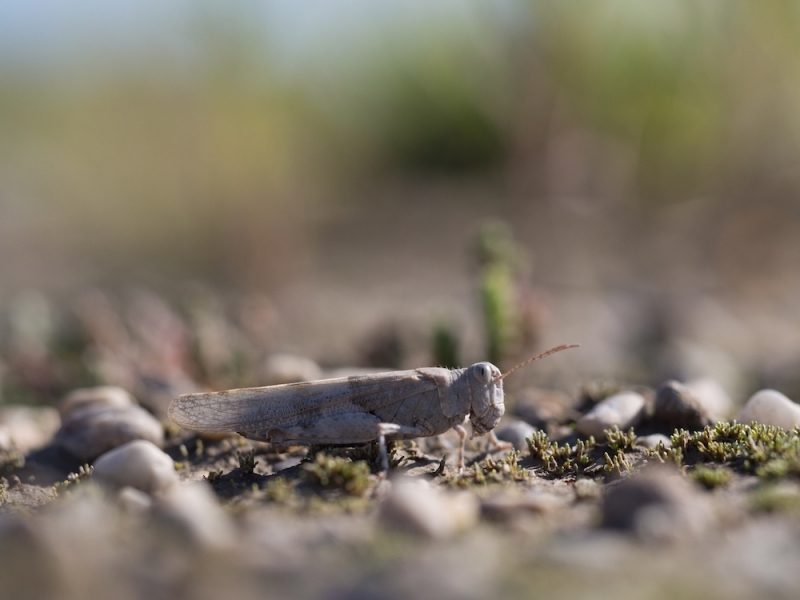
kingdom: Animalia
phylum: Arthropoda
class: Insecta
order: Orthoptera
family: Acrididae
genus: Sphingonotus
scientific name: Sphingonotus caerulans
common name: Blue-winged locust
